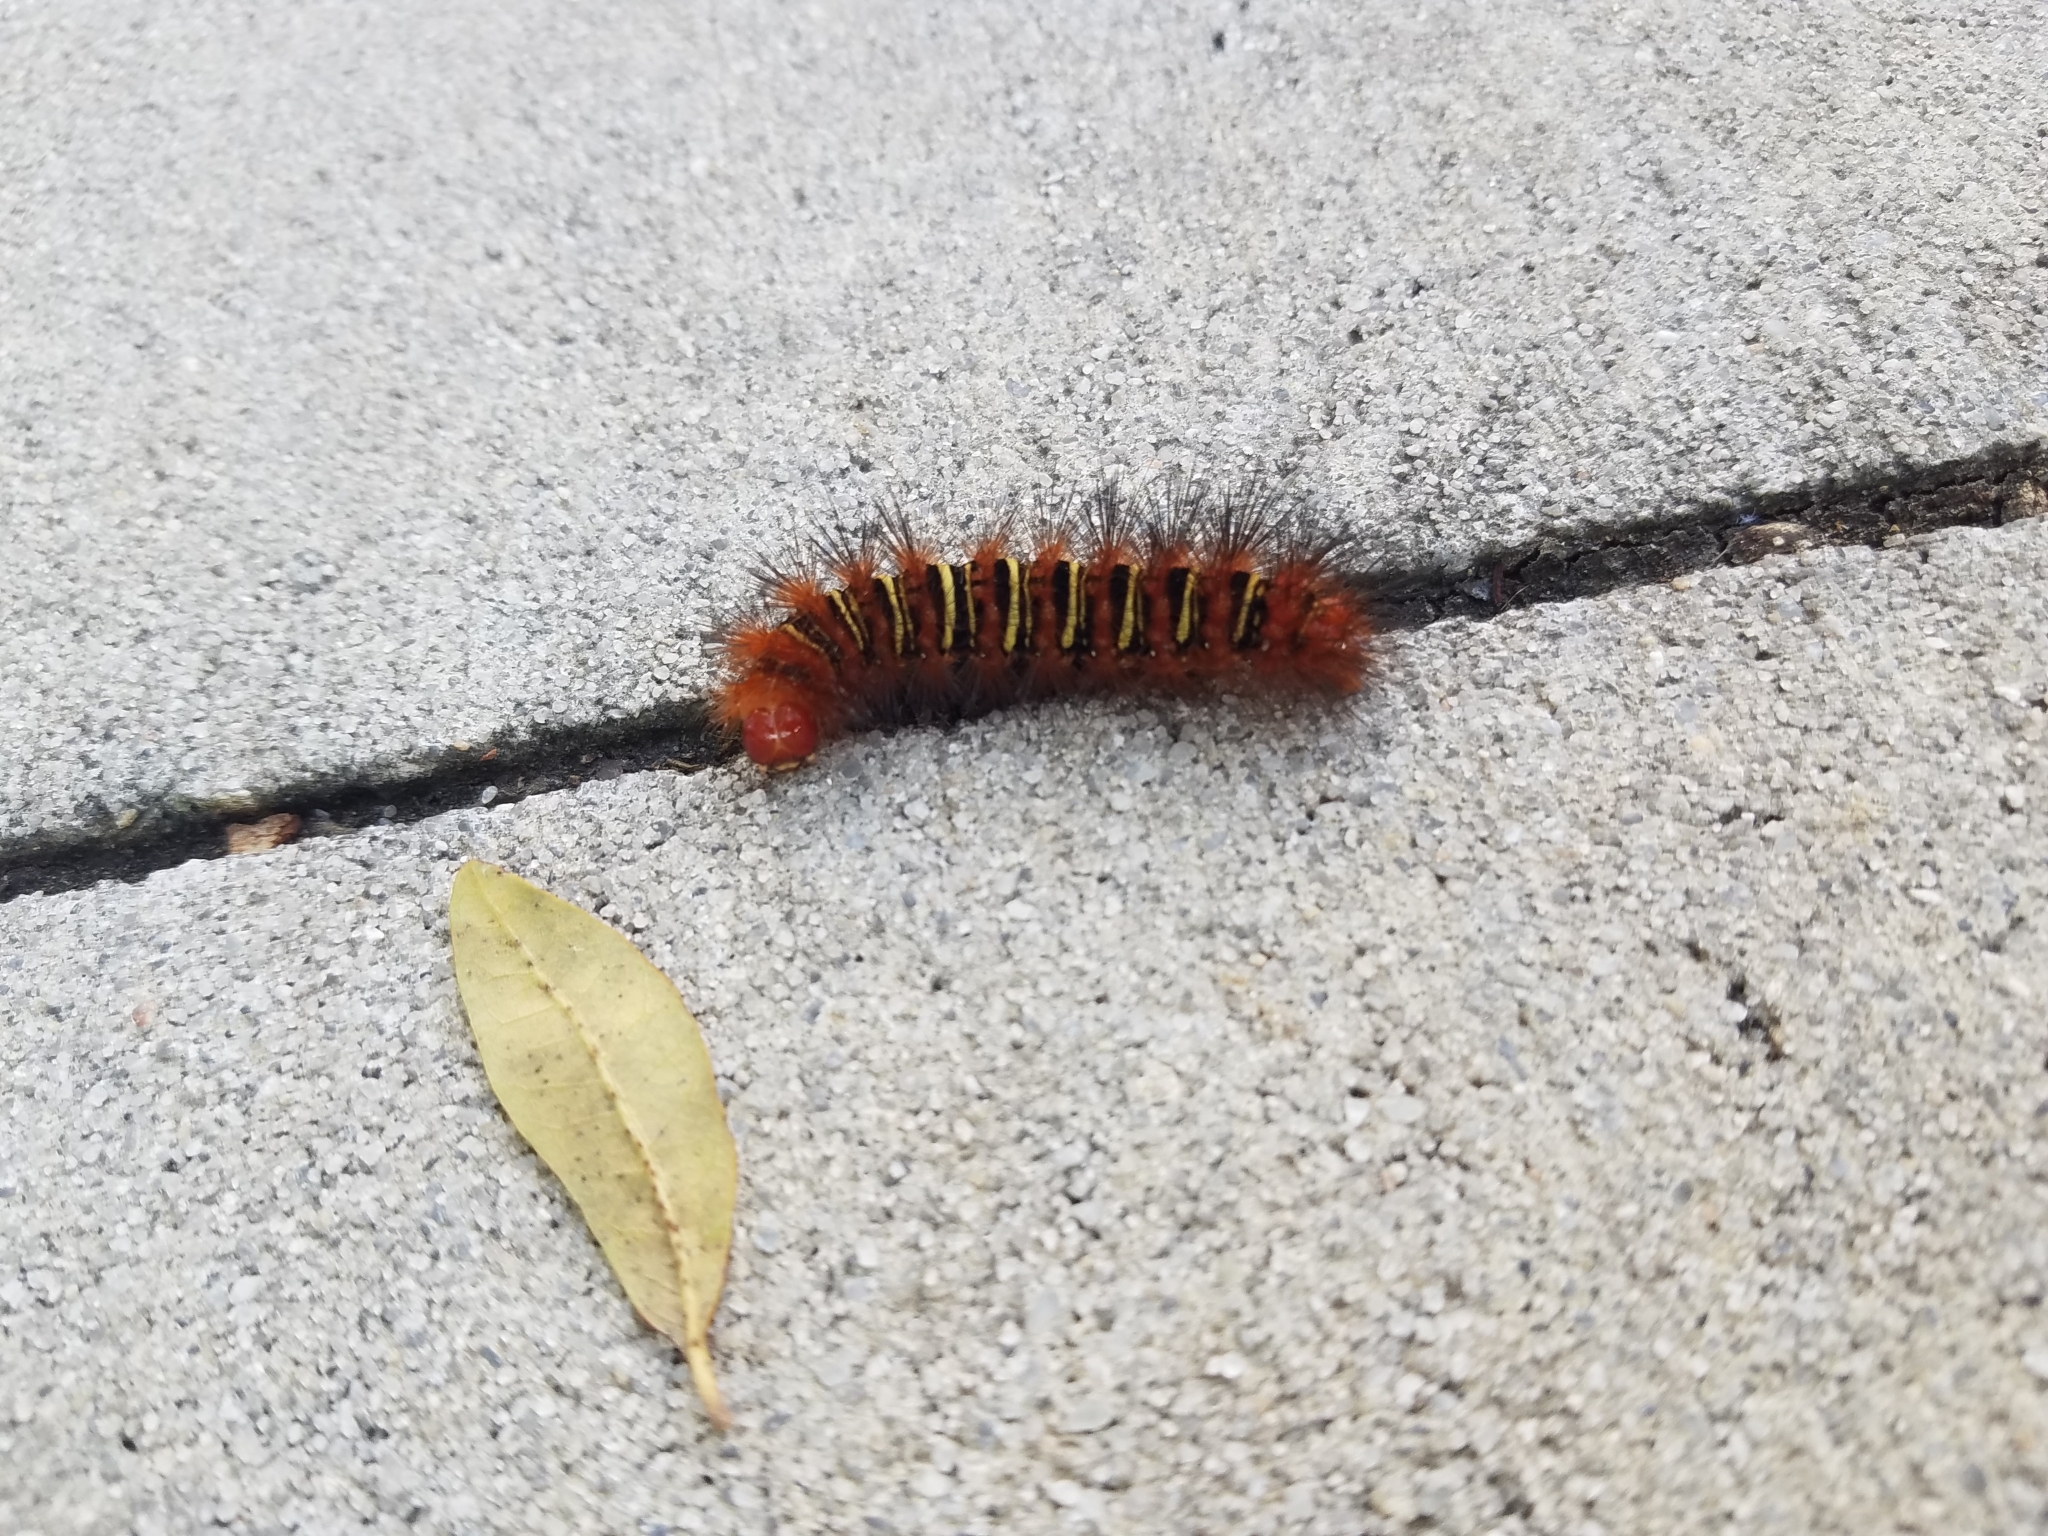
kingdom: Animalia
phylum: Arthropoda
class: Insecta
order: Lepidoptera
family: Erebidae
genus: Seirarctia
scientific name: Seirarctia echo
